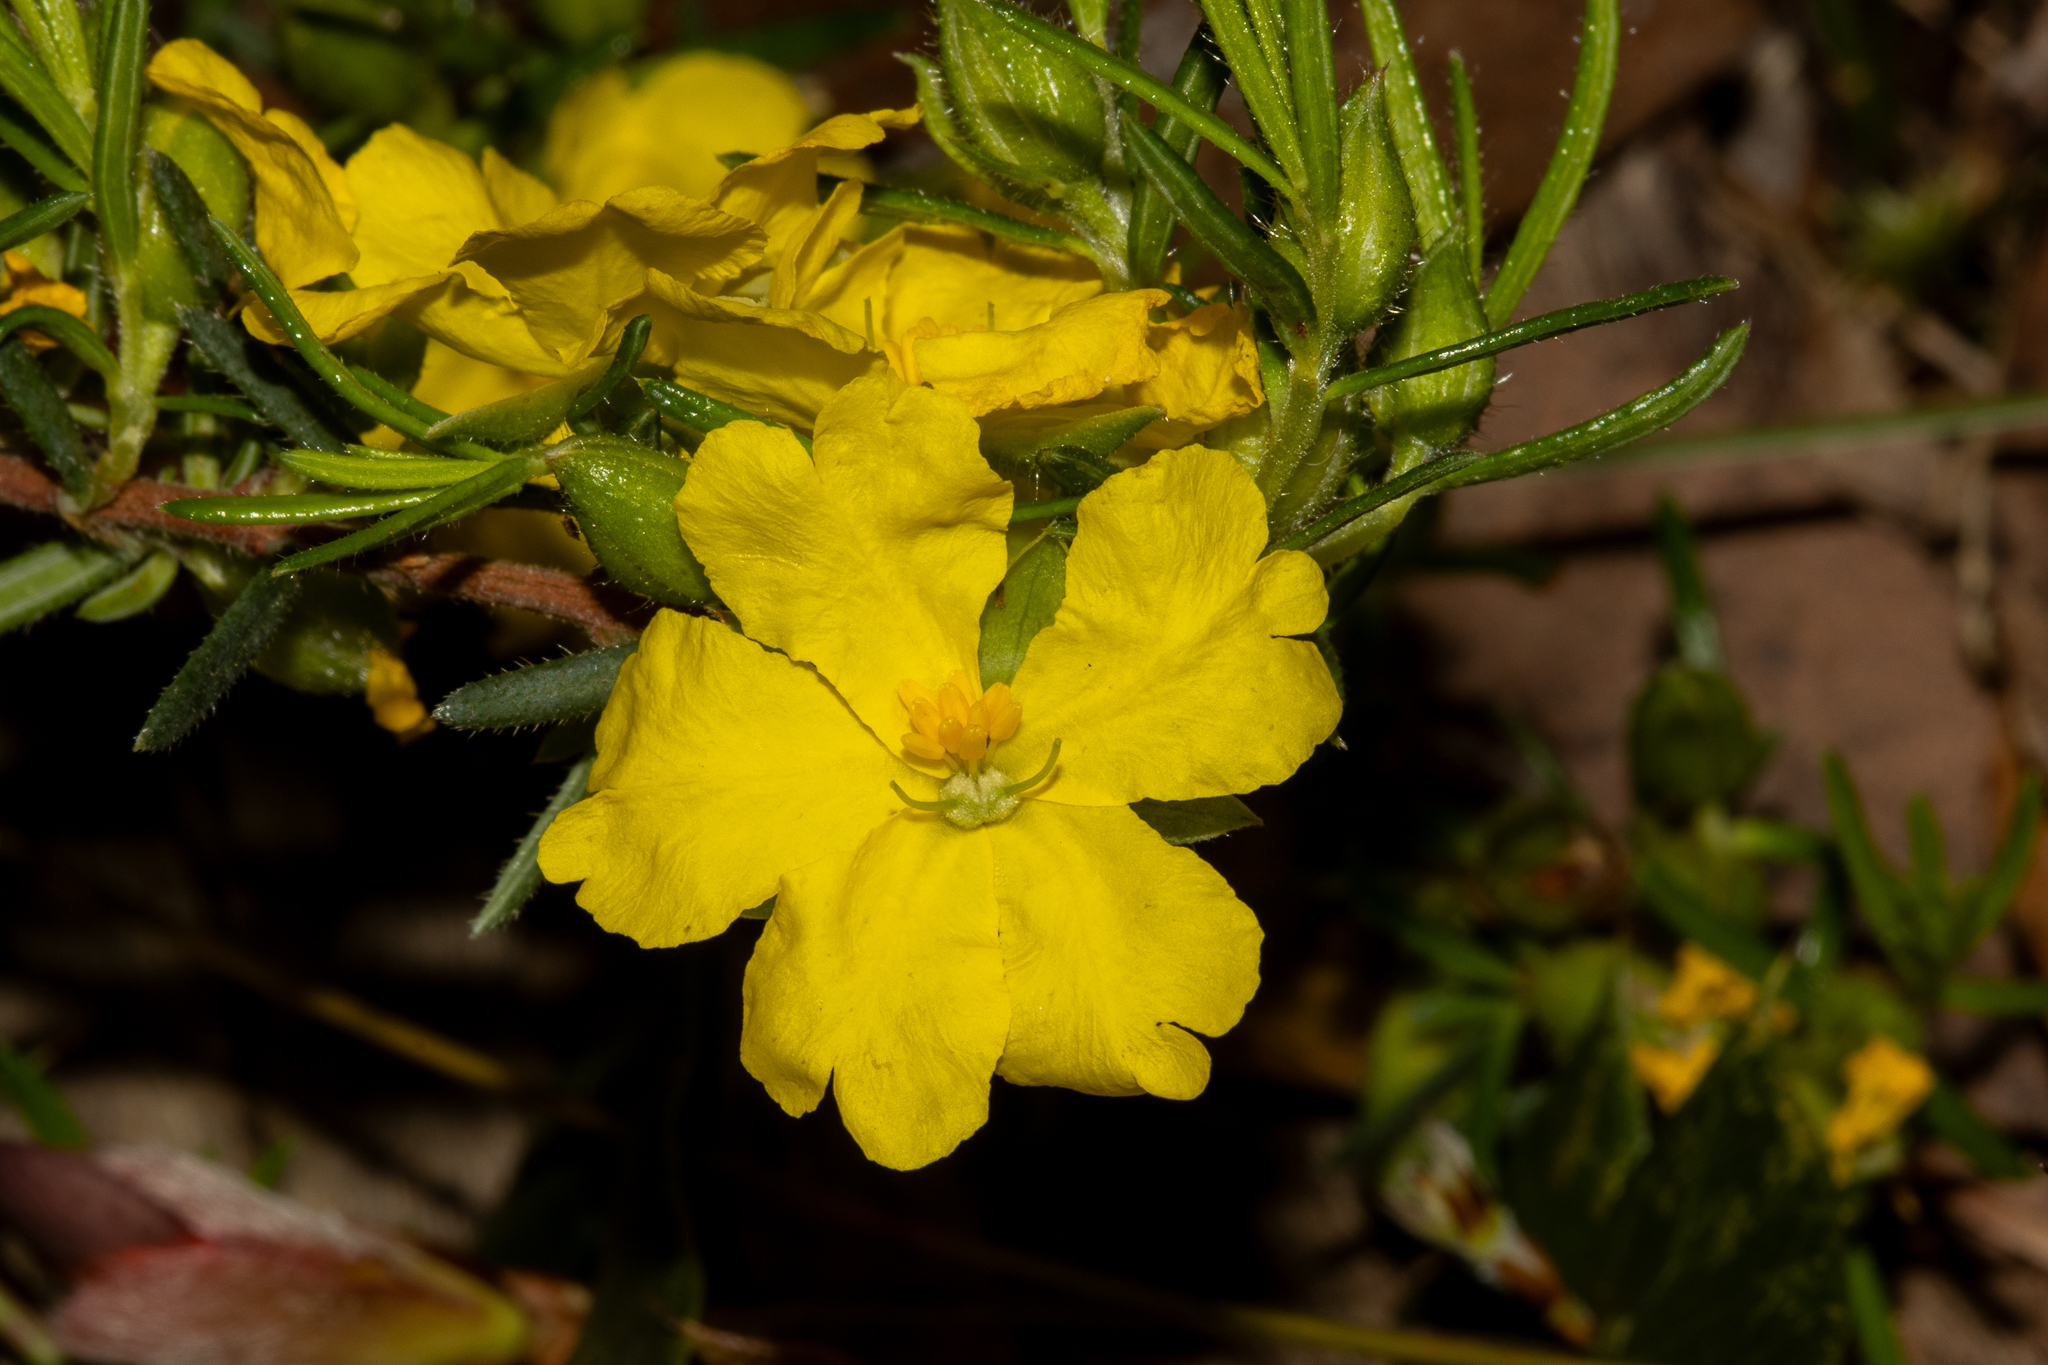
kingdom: Plantae
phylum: Tracheophyta
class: Magnoliopsida
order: Dilleniales
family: Dilleniaceae
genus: Hibbertia
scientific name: Hibbertia riparia
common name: Erect guinea-flower
